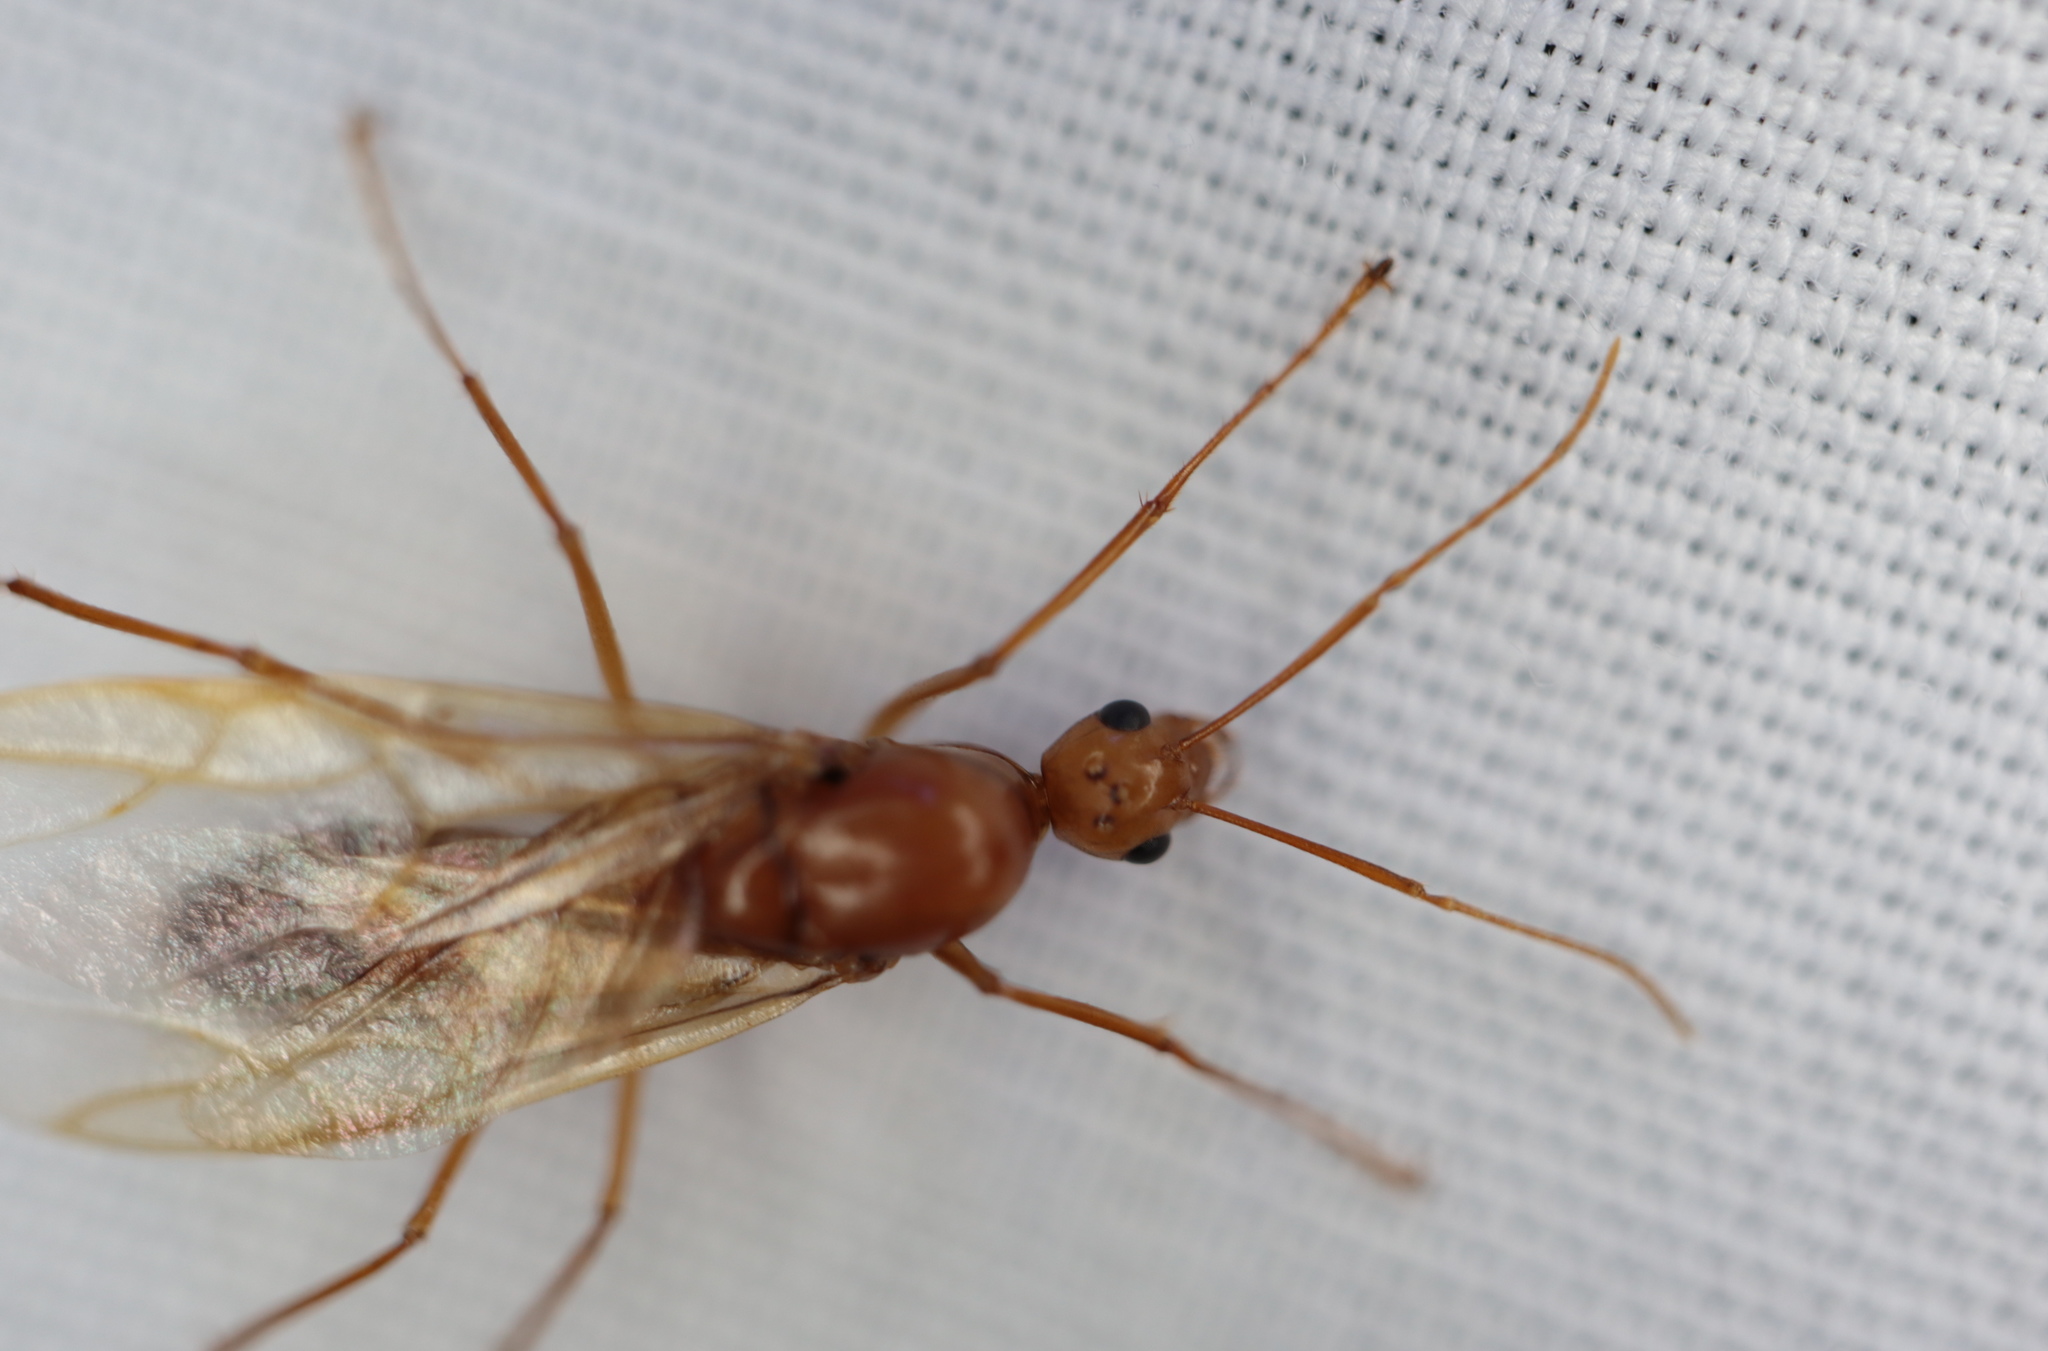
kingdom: Animalia
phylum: Arthropoda
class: Insecta
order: Hymenoptera
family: Formicidae
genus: Camponotus
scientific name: Camponotus castaneus
